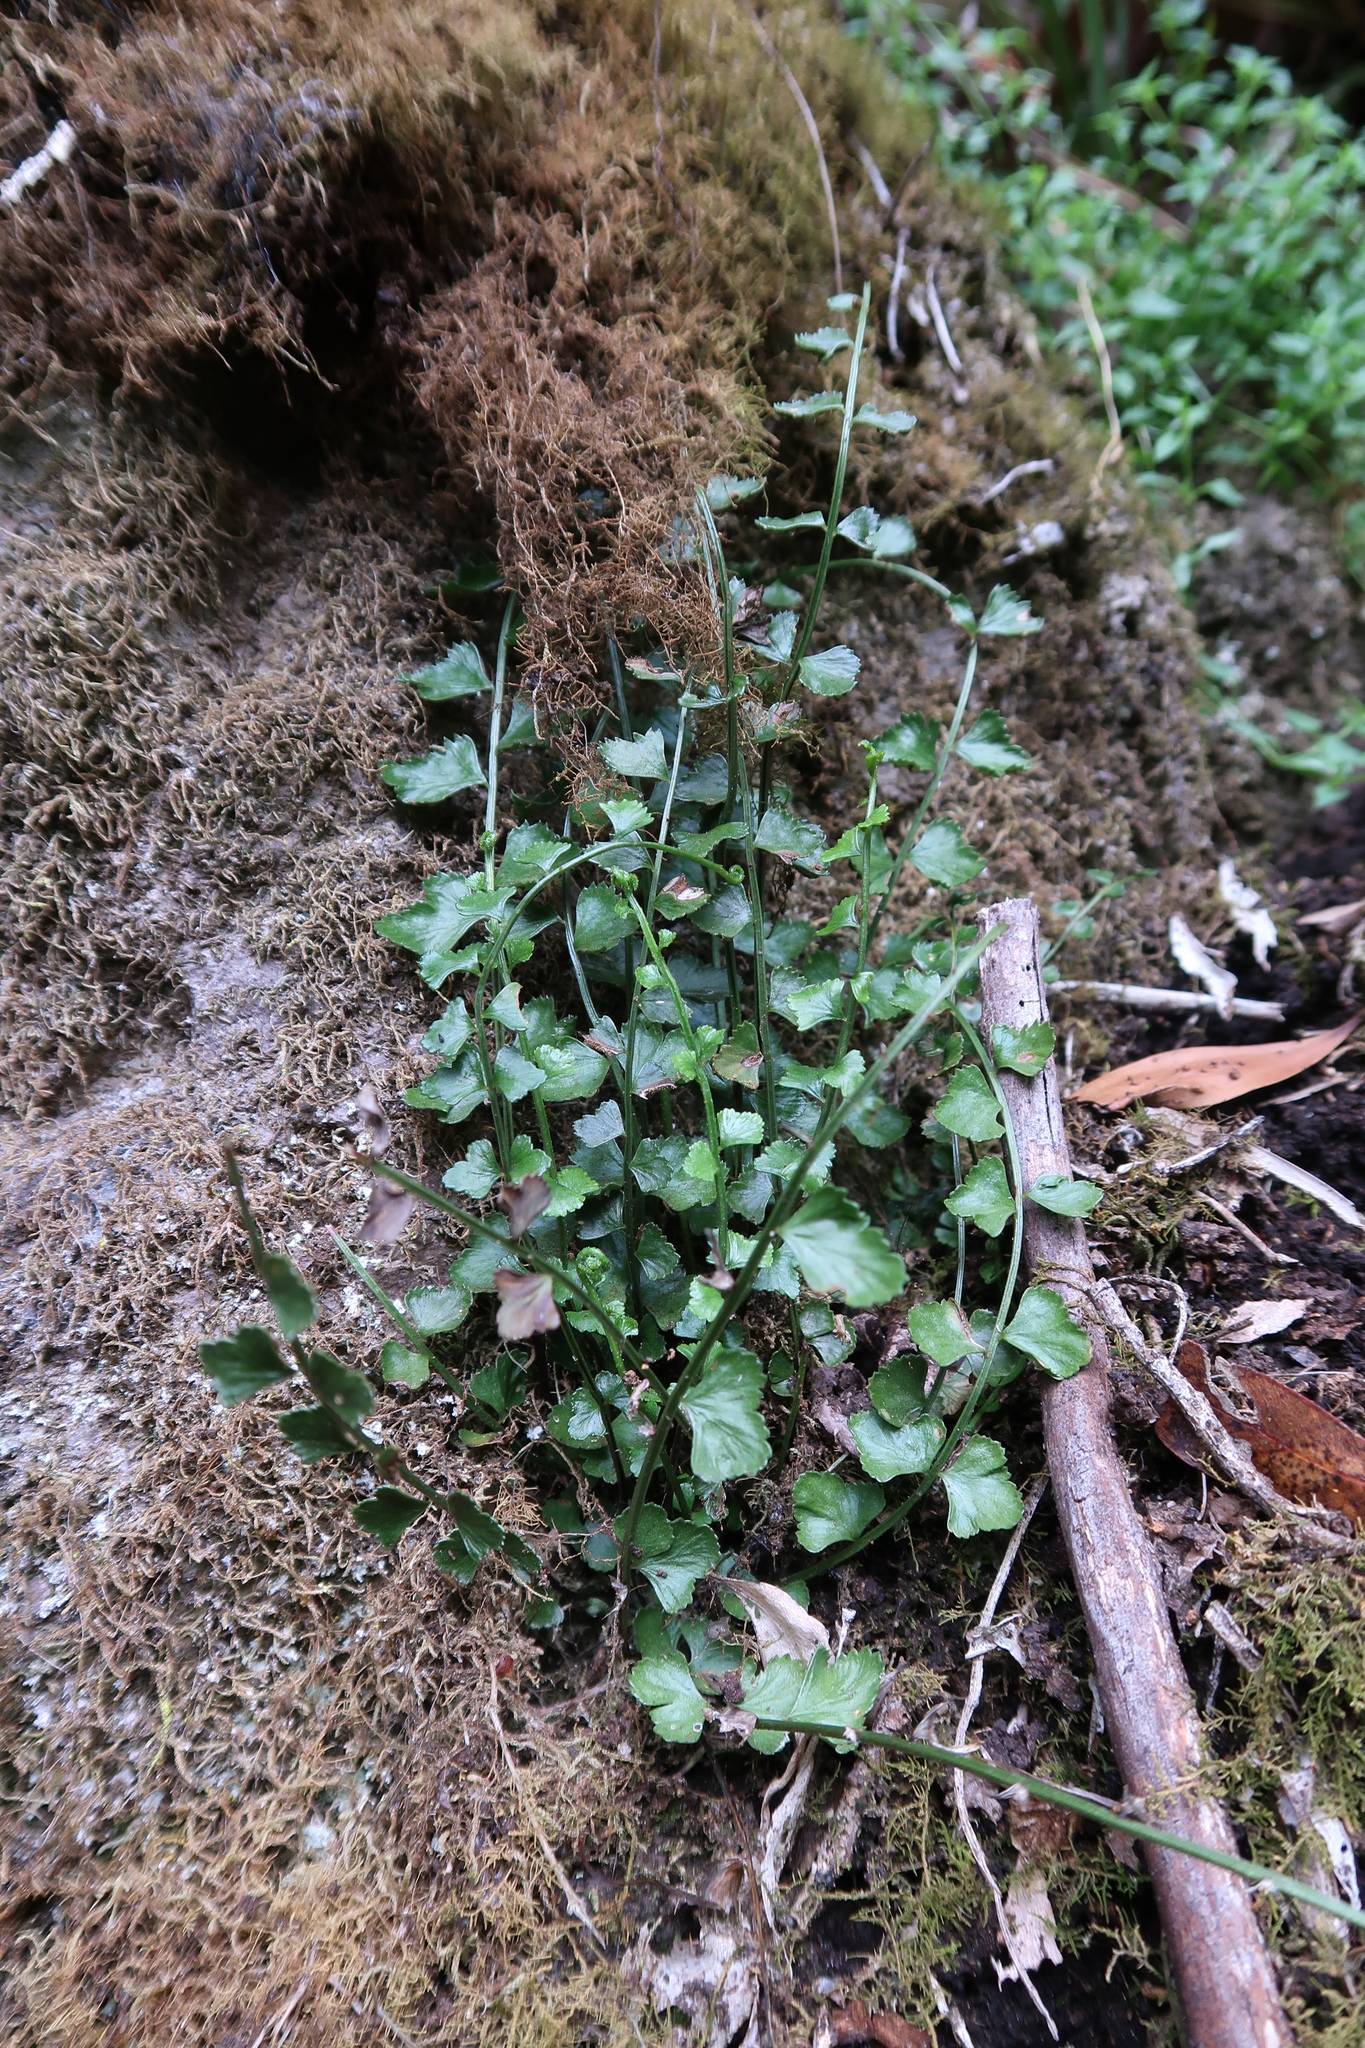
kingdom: Plantae
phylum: Tracheophyta
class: Polypodiopsida
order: Polypodiales
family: Aspleniaceae
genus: Asplenium
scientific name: Asplenium flabellifolium
